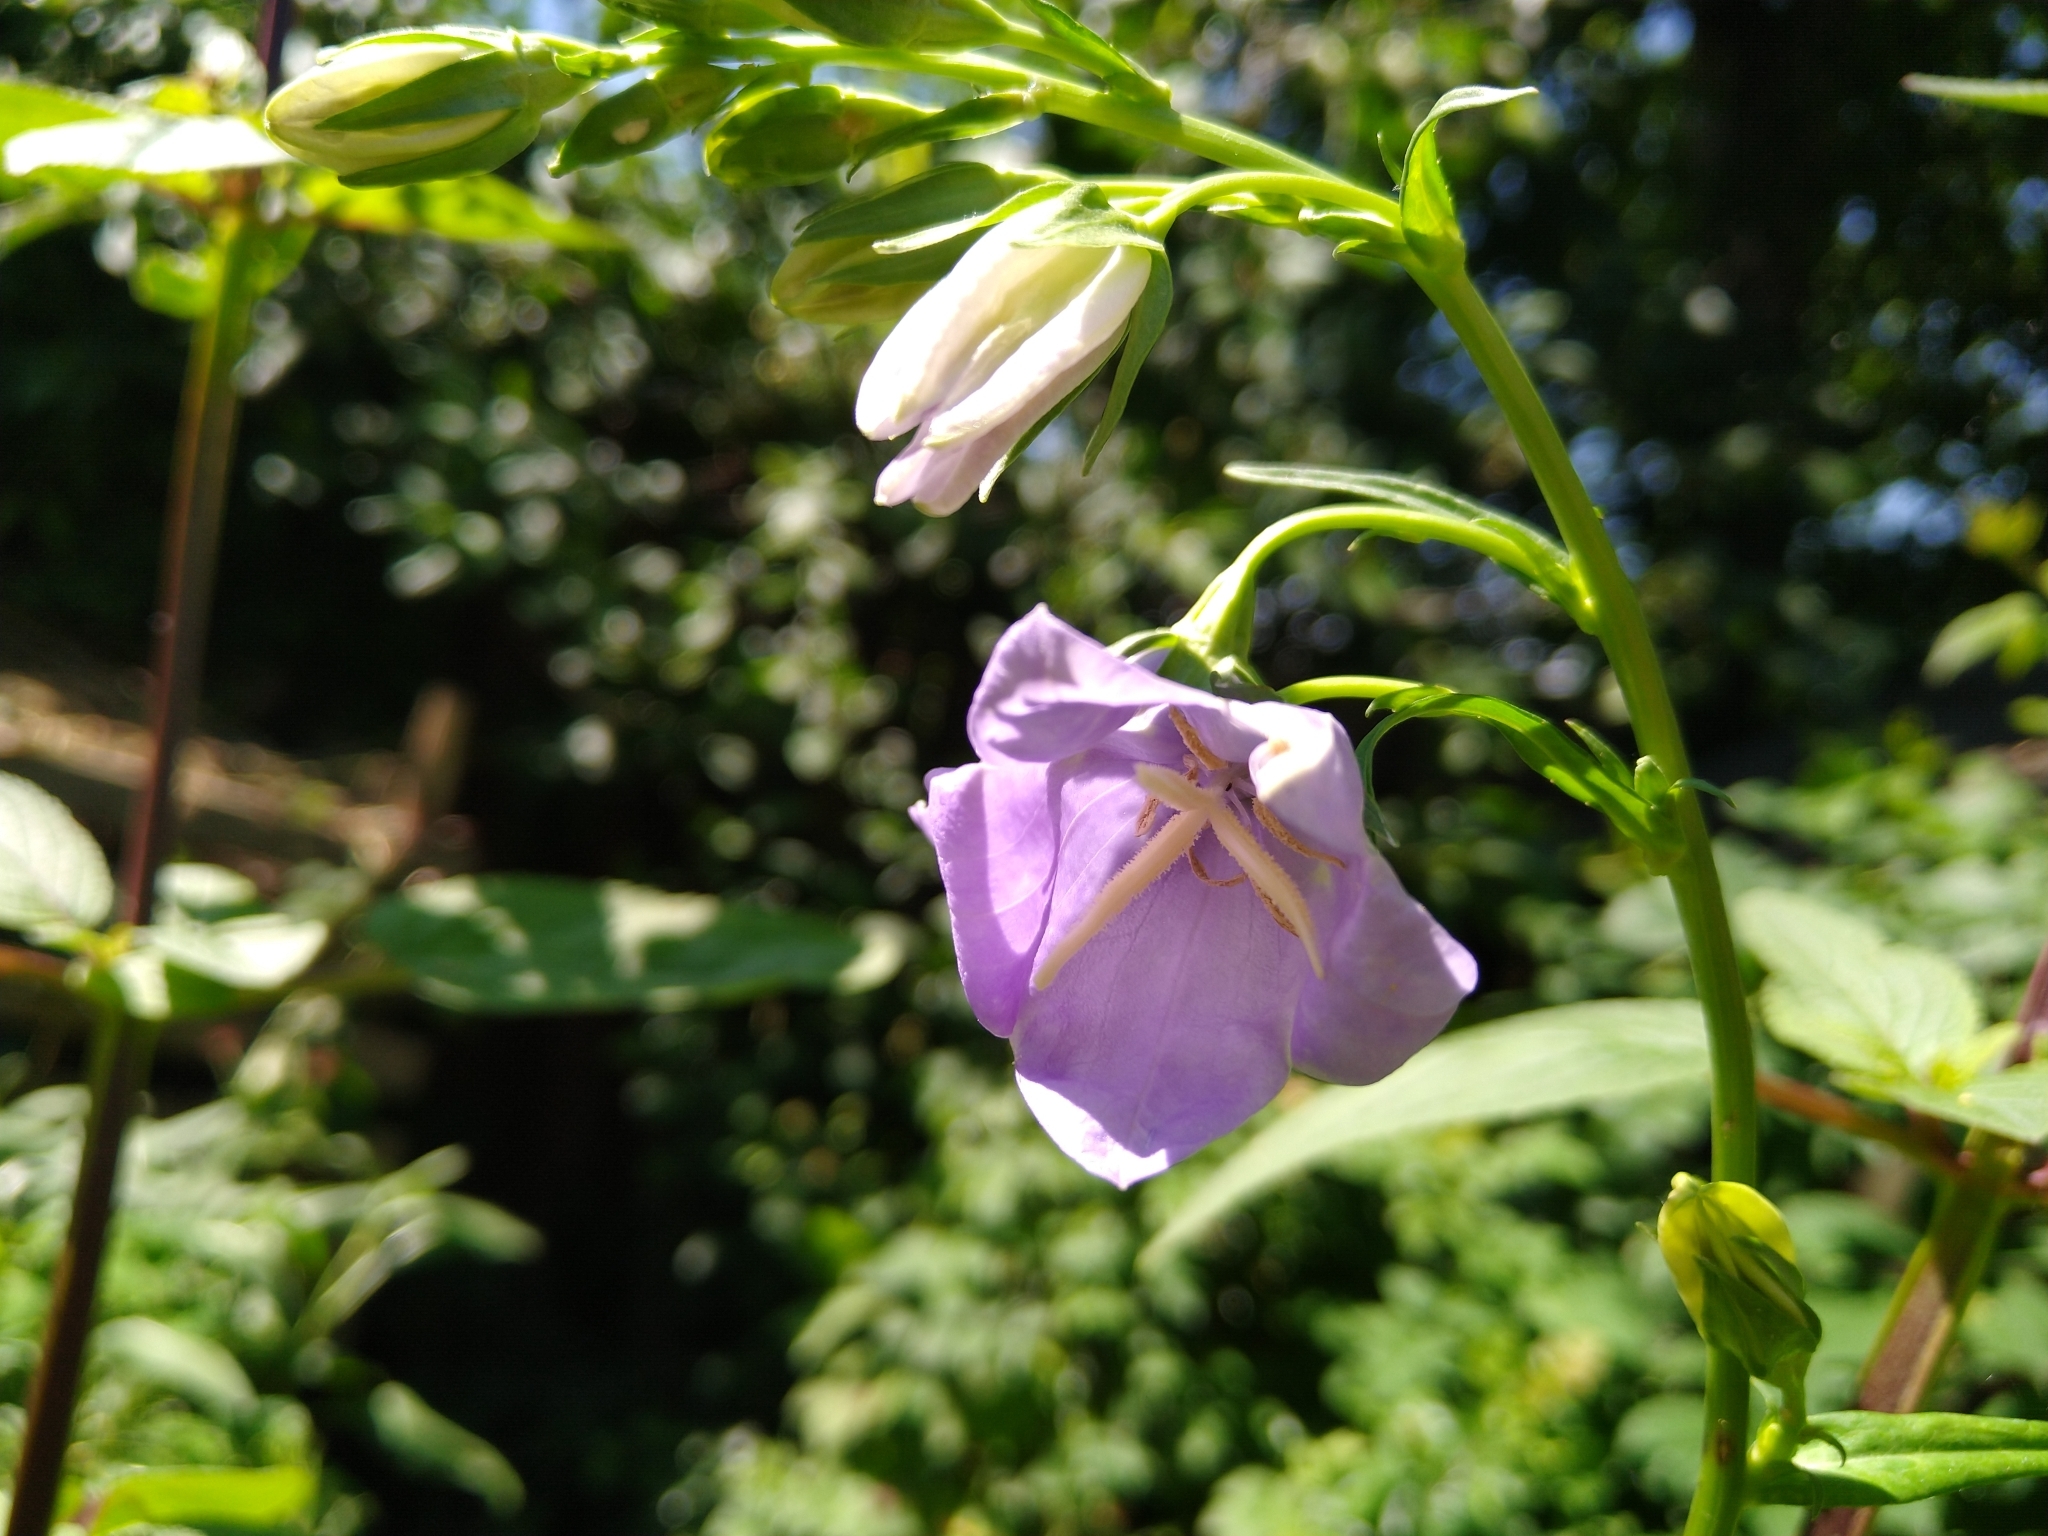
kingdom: Plantae
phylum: Tracheophyta
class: Magnoliopsida
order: Asterales
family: Campanulaceae
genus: Campanula
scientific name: Campanula persicifolia
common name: Peach-leaved bellflower
